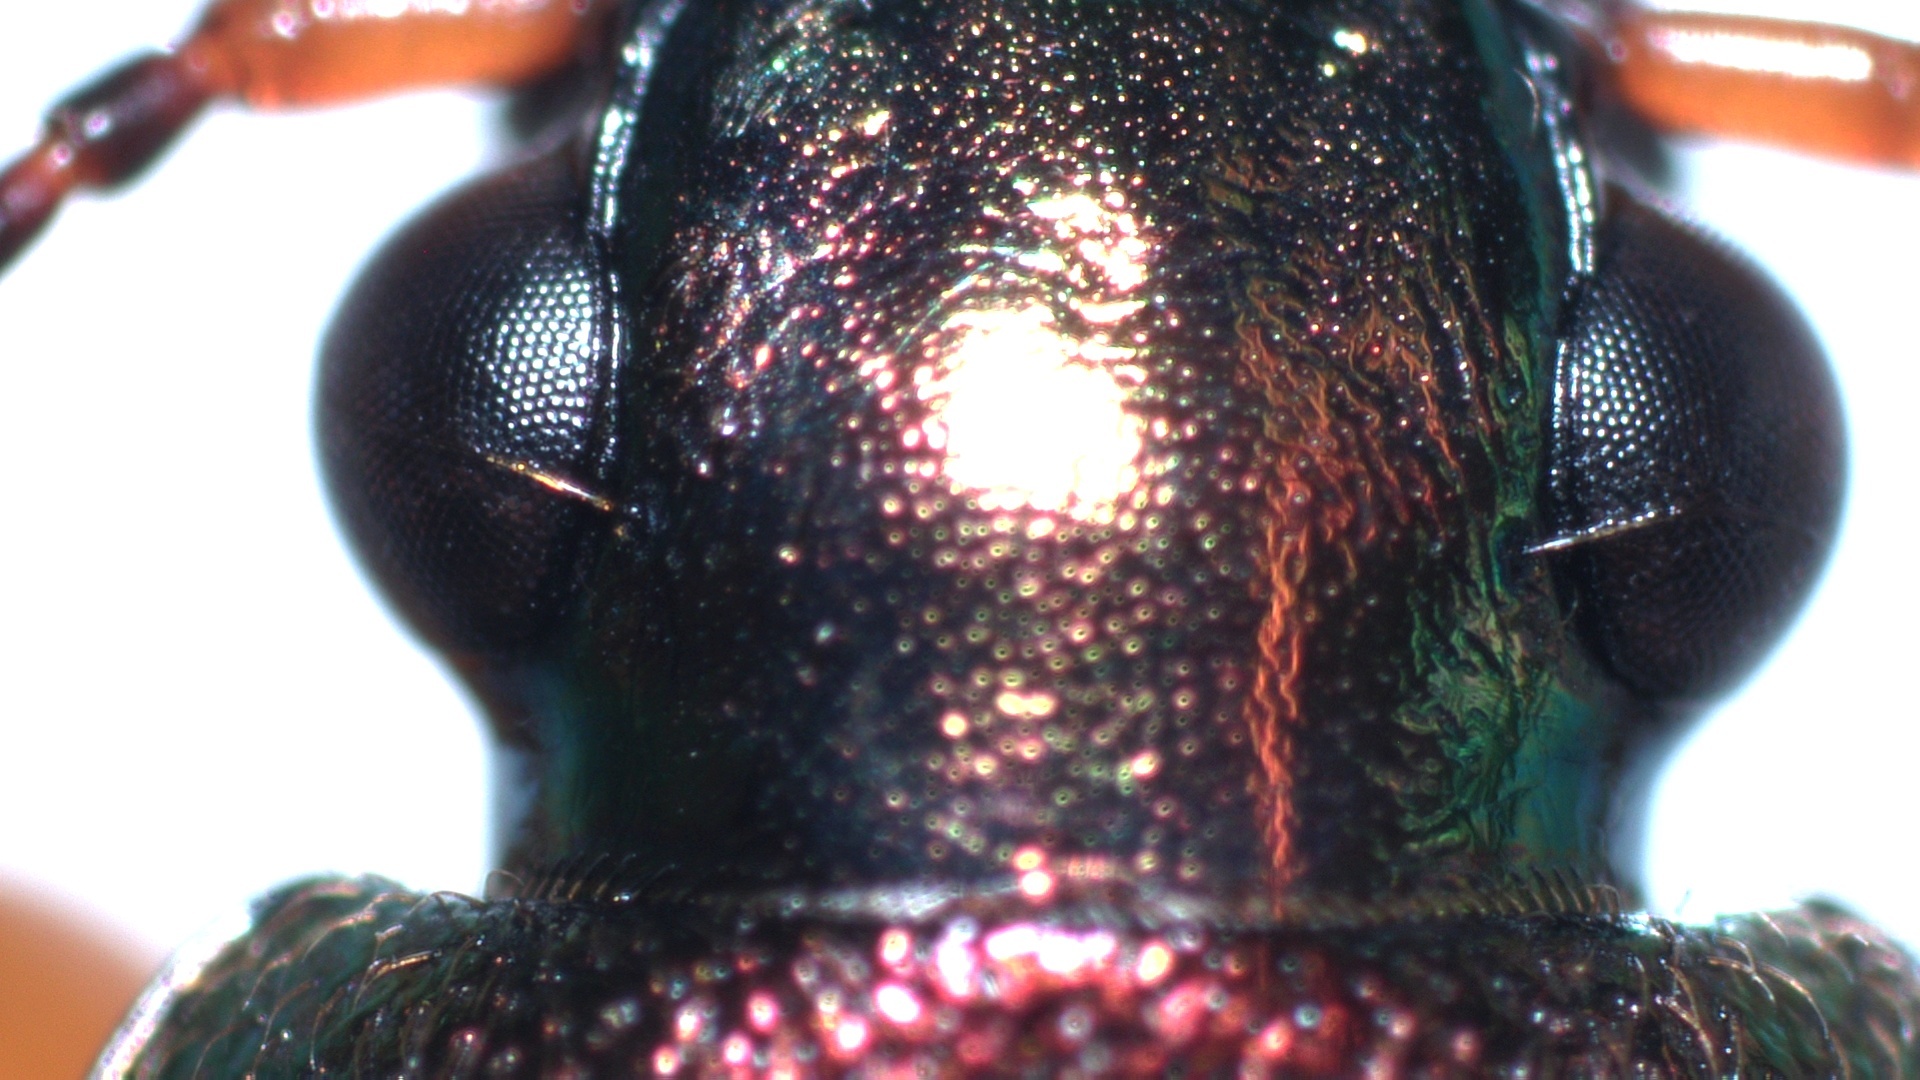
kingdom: Animalia
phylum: Arthropoda
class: Insecta
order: Coleoptera
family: Carabidae
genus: Chlaenius
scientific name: Chlaenius nigricornis
